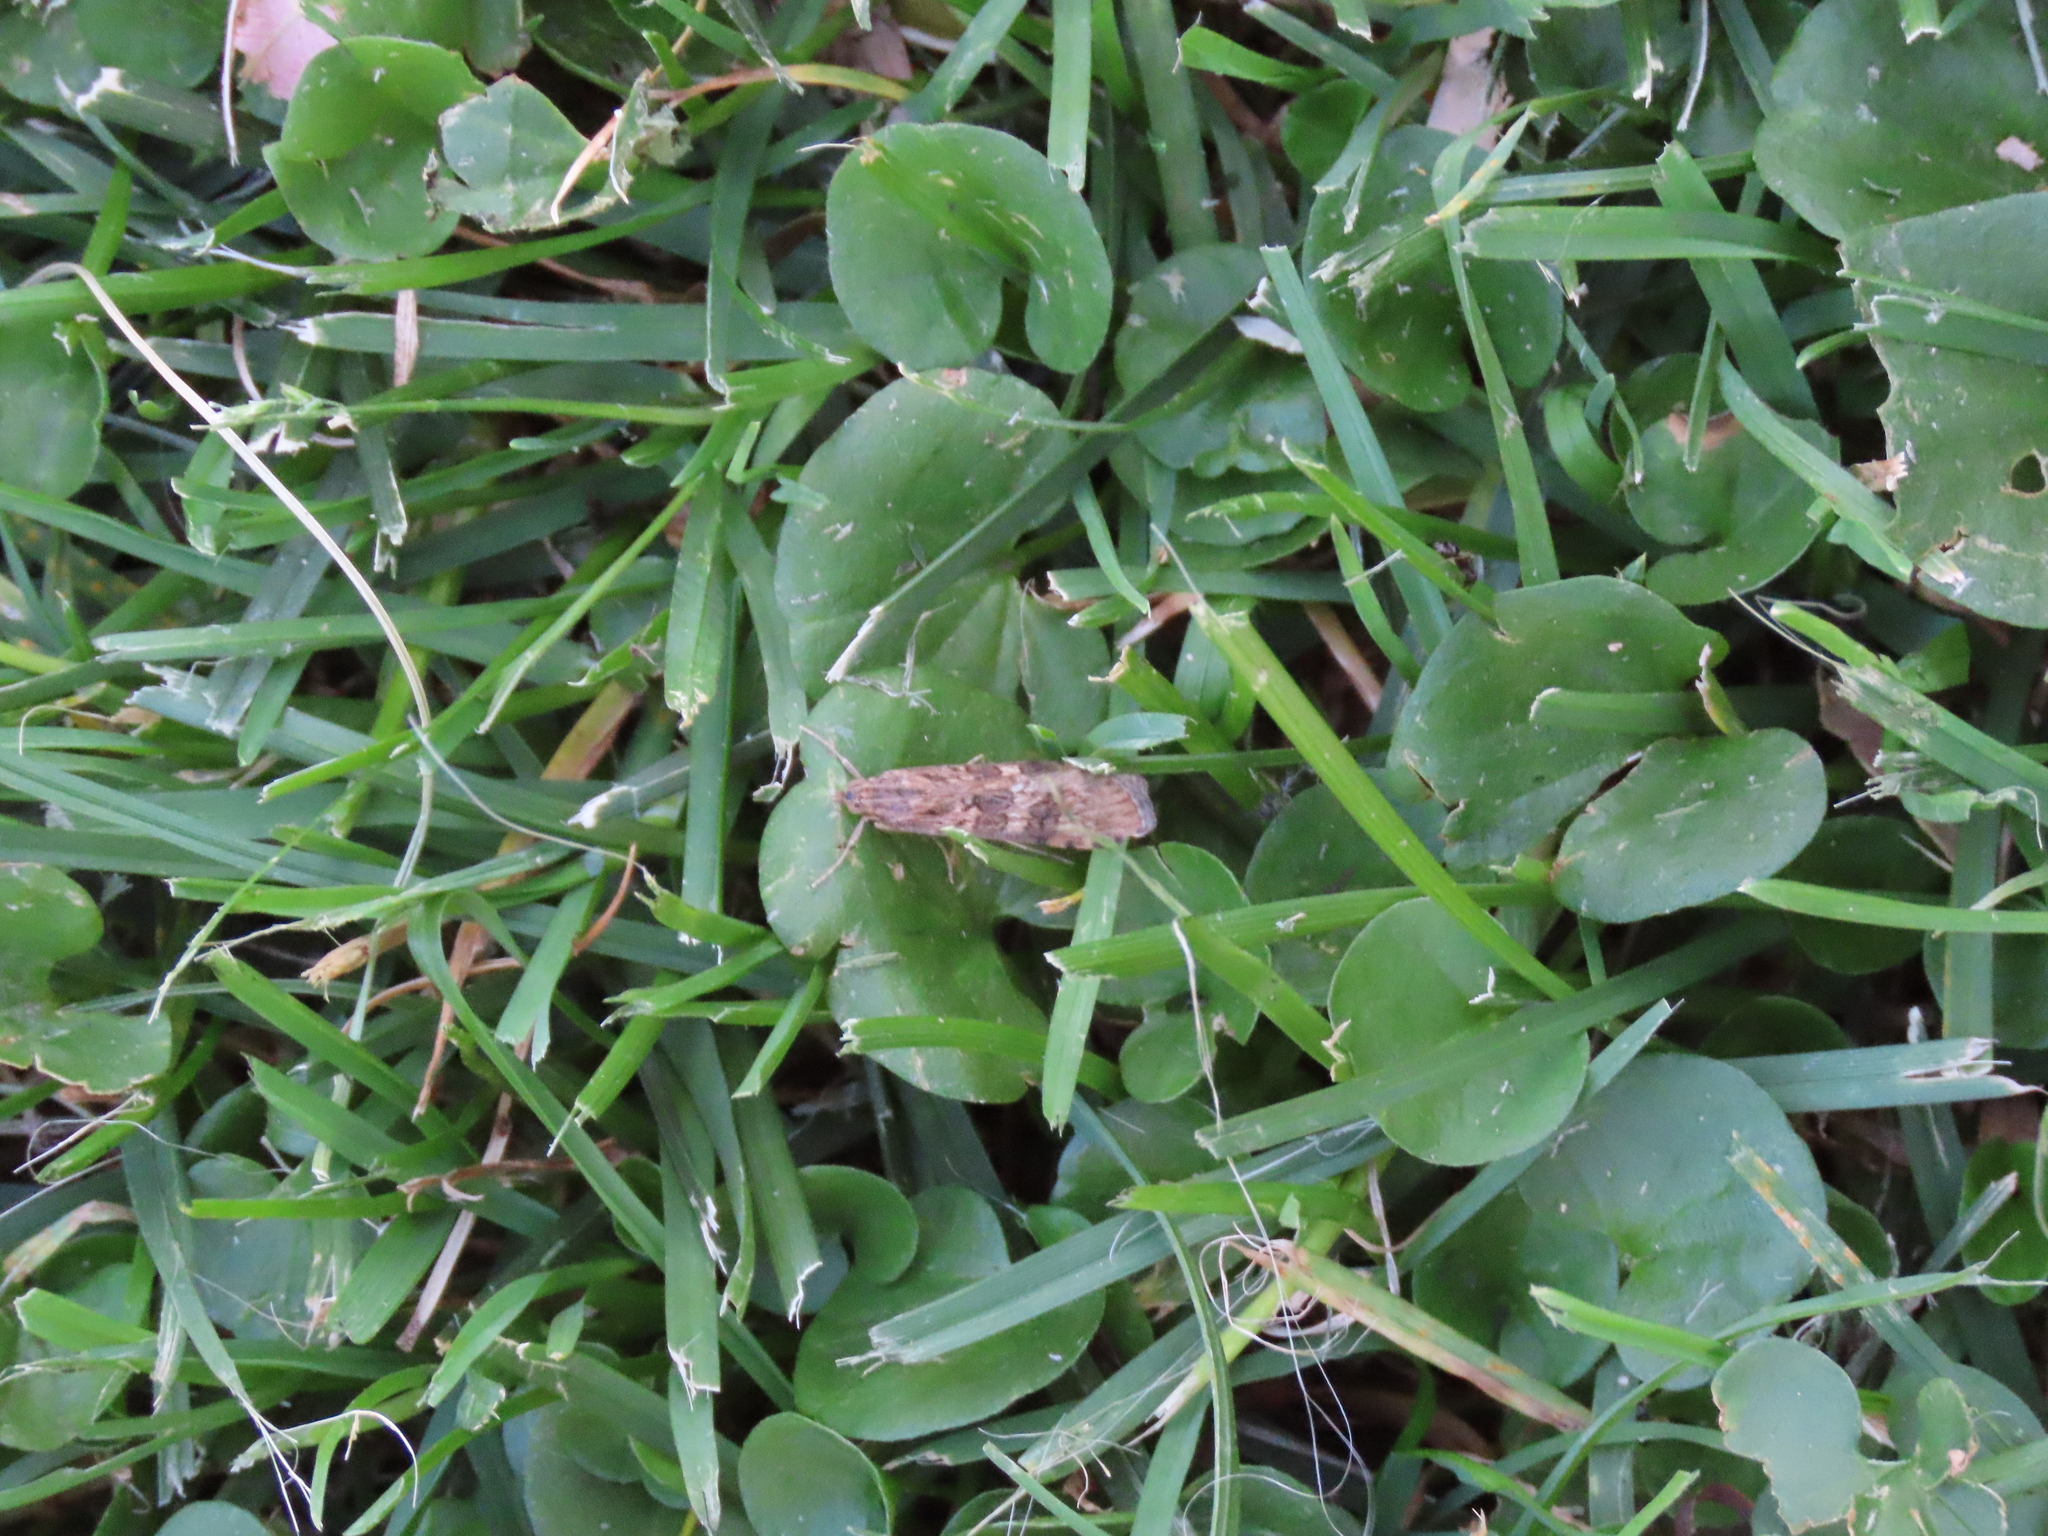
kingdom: Animalia
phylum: Arthropoda
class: Insecta
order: Lepidoptera
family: Crambidae
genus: Nomophila
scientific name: Nomophila noctuella
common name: Rush veneer
